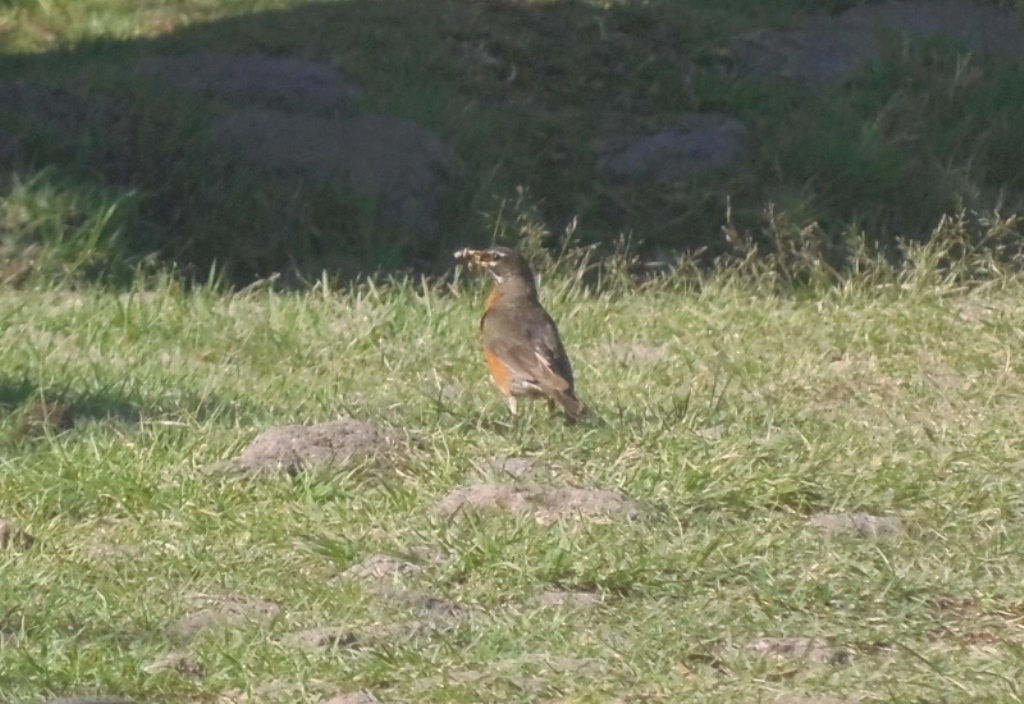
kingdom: Animalia
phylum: Chordata
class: Aves
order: Passeriformes
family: Turdidae
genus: Turdus
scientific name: Turdus migratorius
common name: American robin
